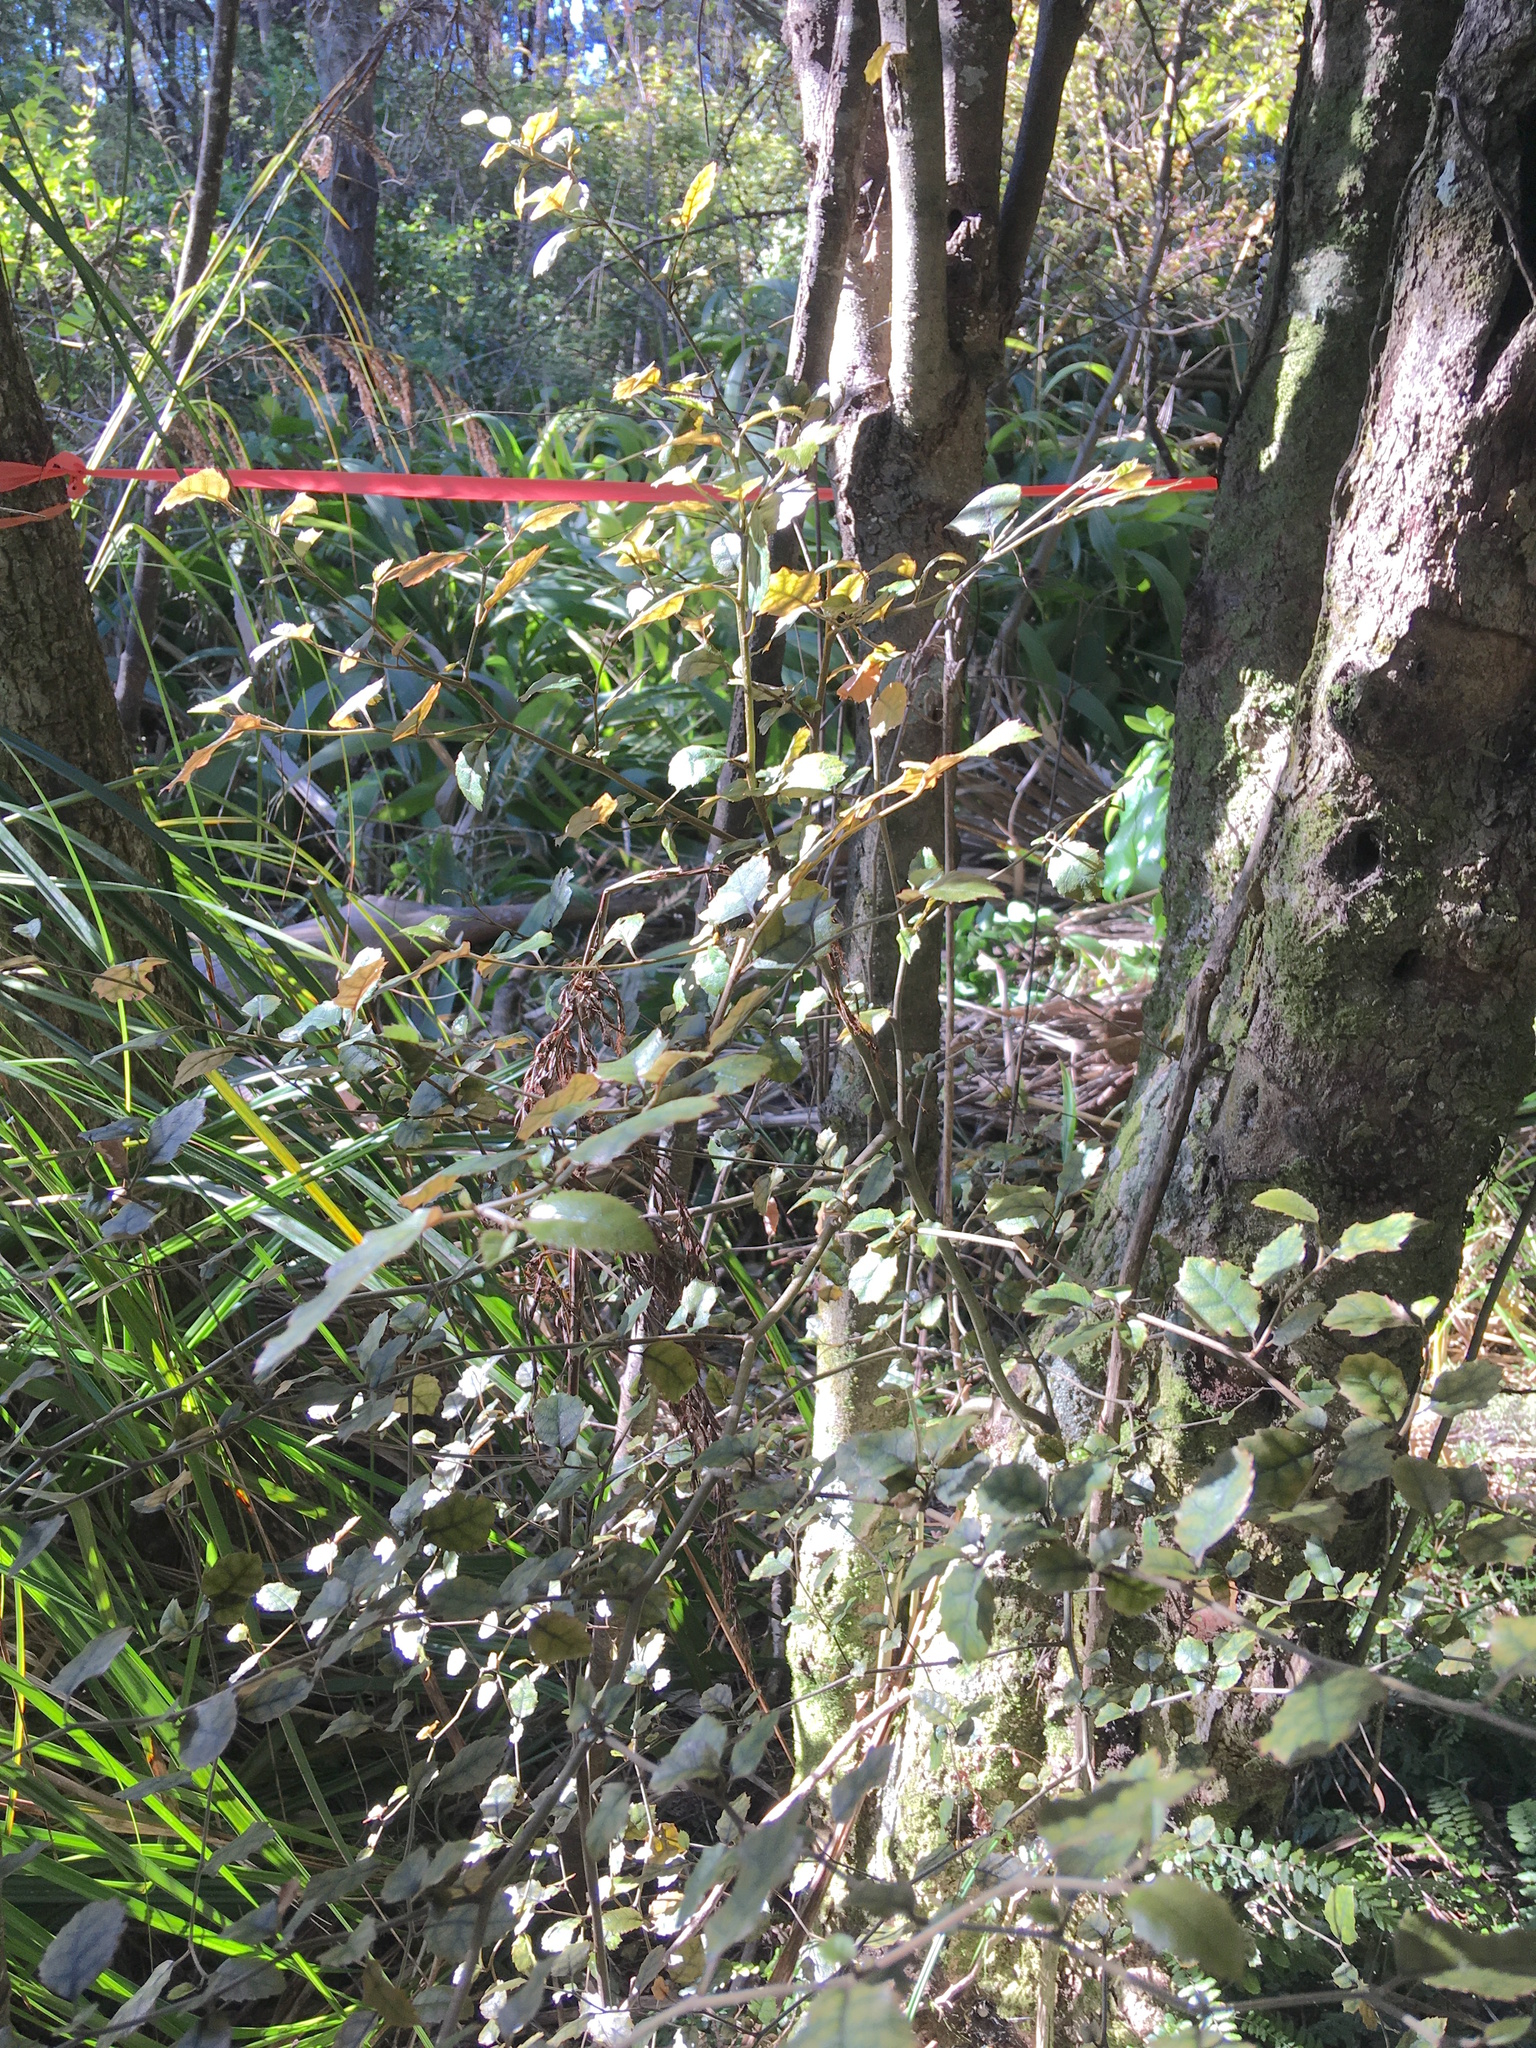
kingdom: Plantae
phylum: Tracheophyta
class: Magnoliopsida
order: Asterales
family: Rousseaceae
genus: Carpodetus
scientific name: Carpodetus serratus
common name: White mapau
